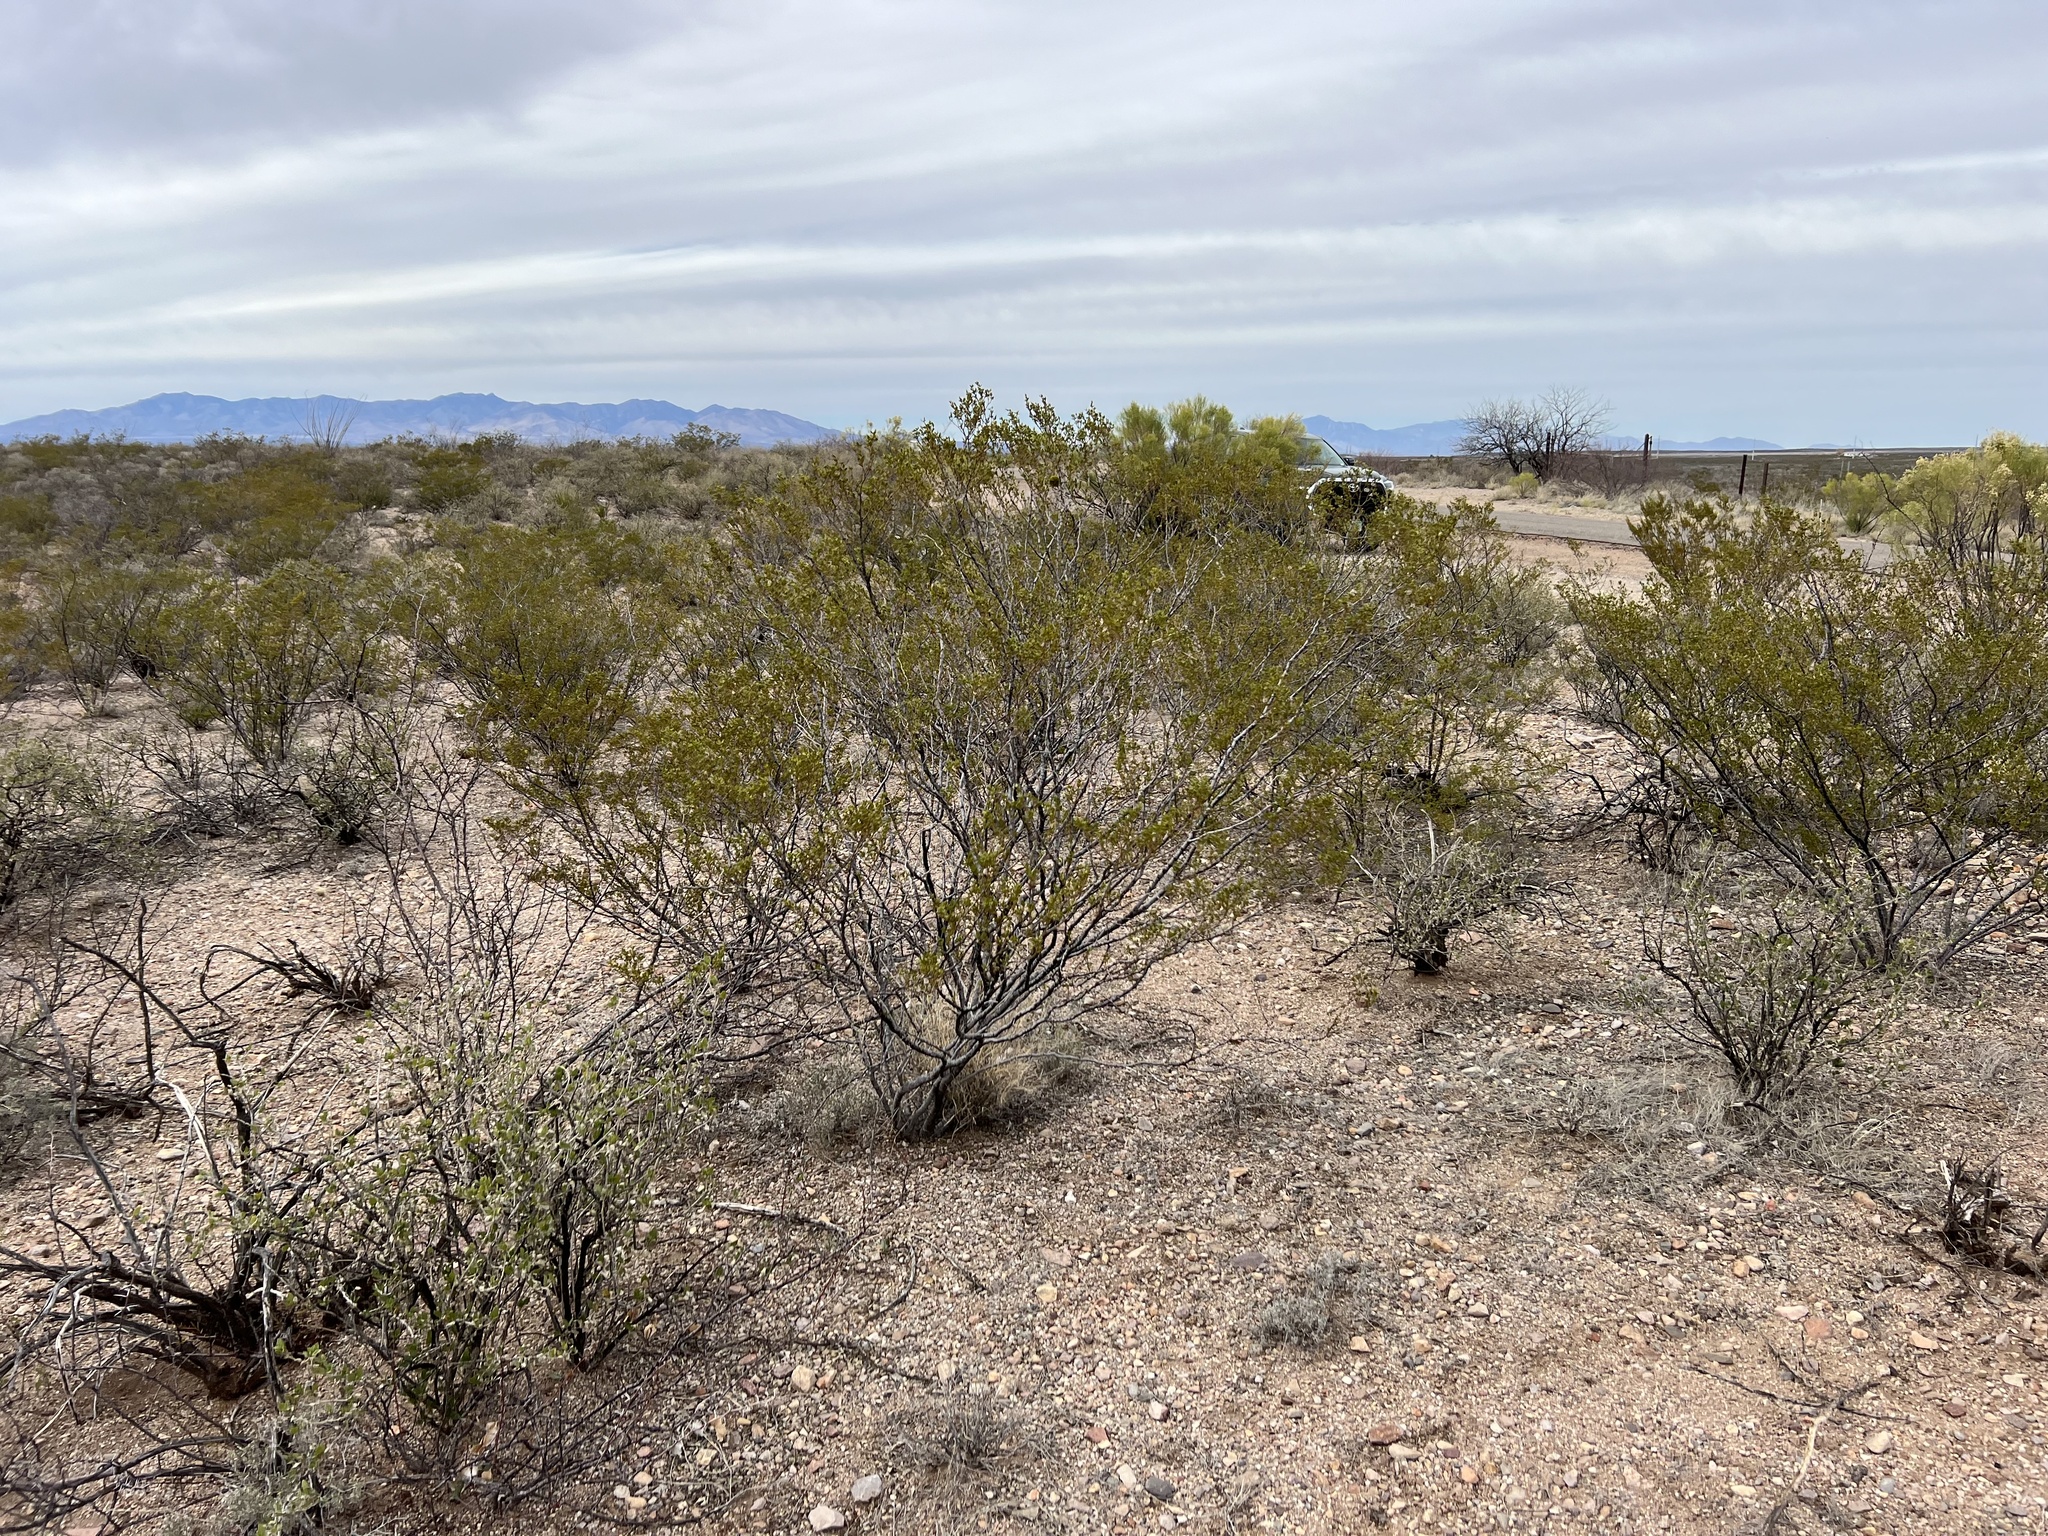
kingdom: Plantae
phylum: Tracheophyta
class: Magnoliopsida
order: Zygophyllales
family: Zygophyllaceae
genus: Larrea
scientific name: Larrea tridentata
